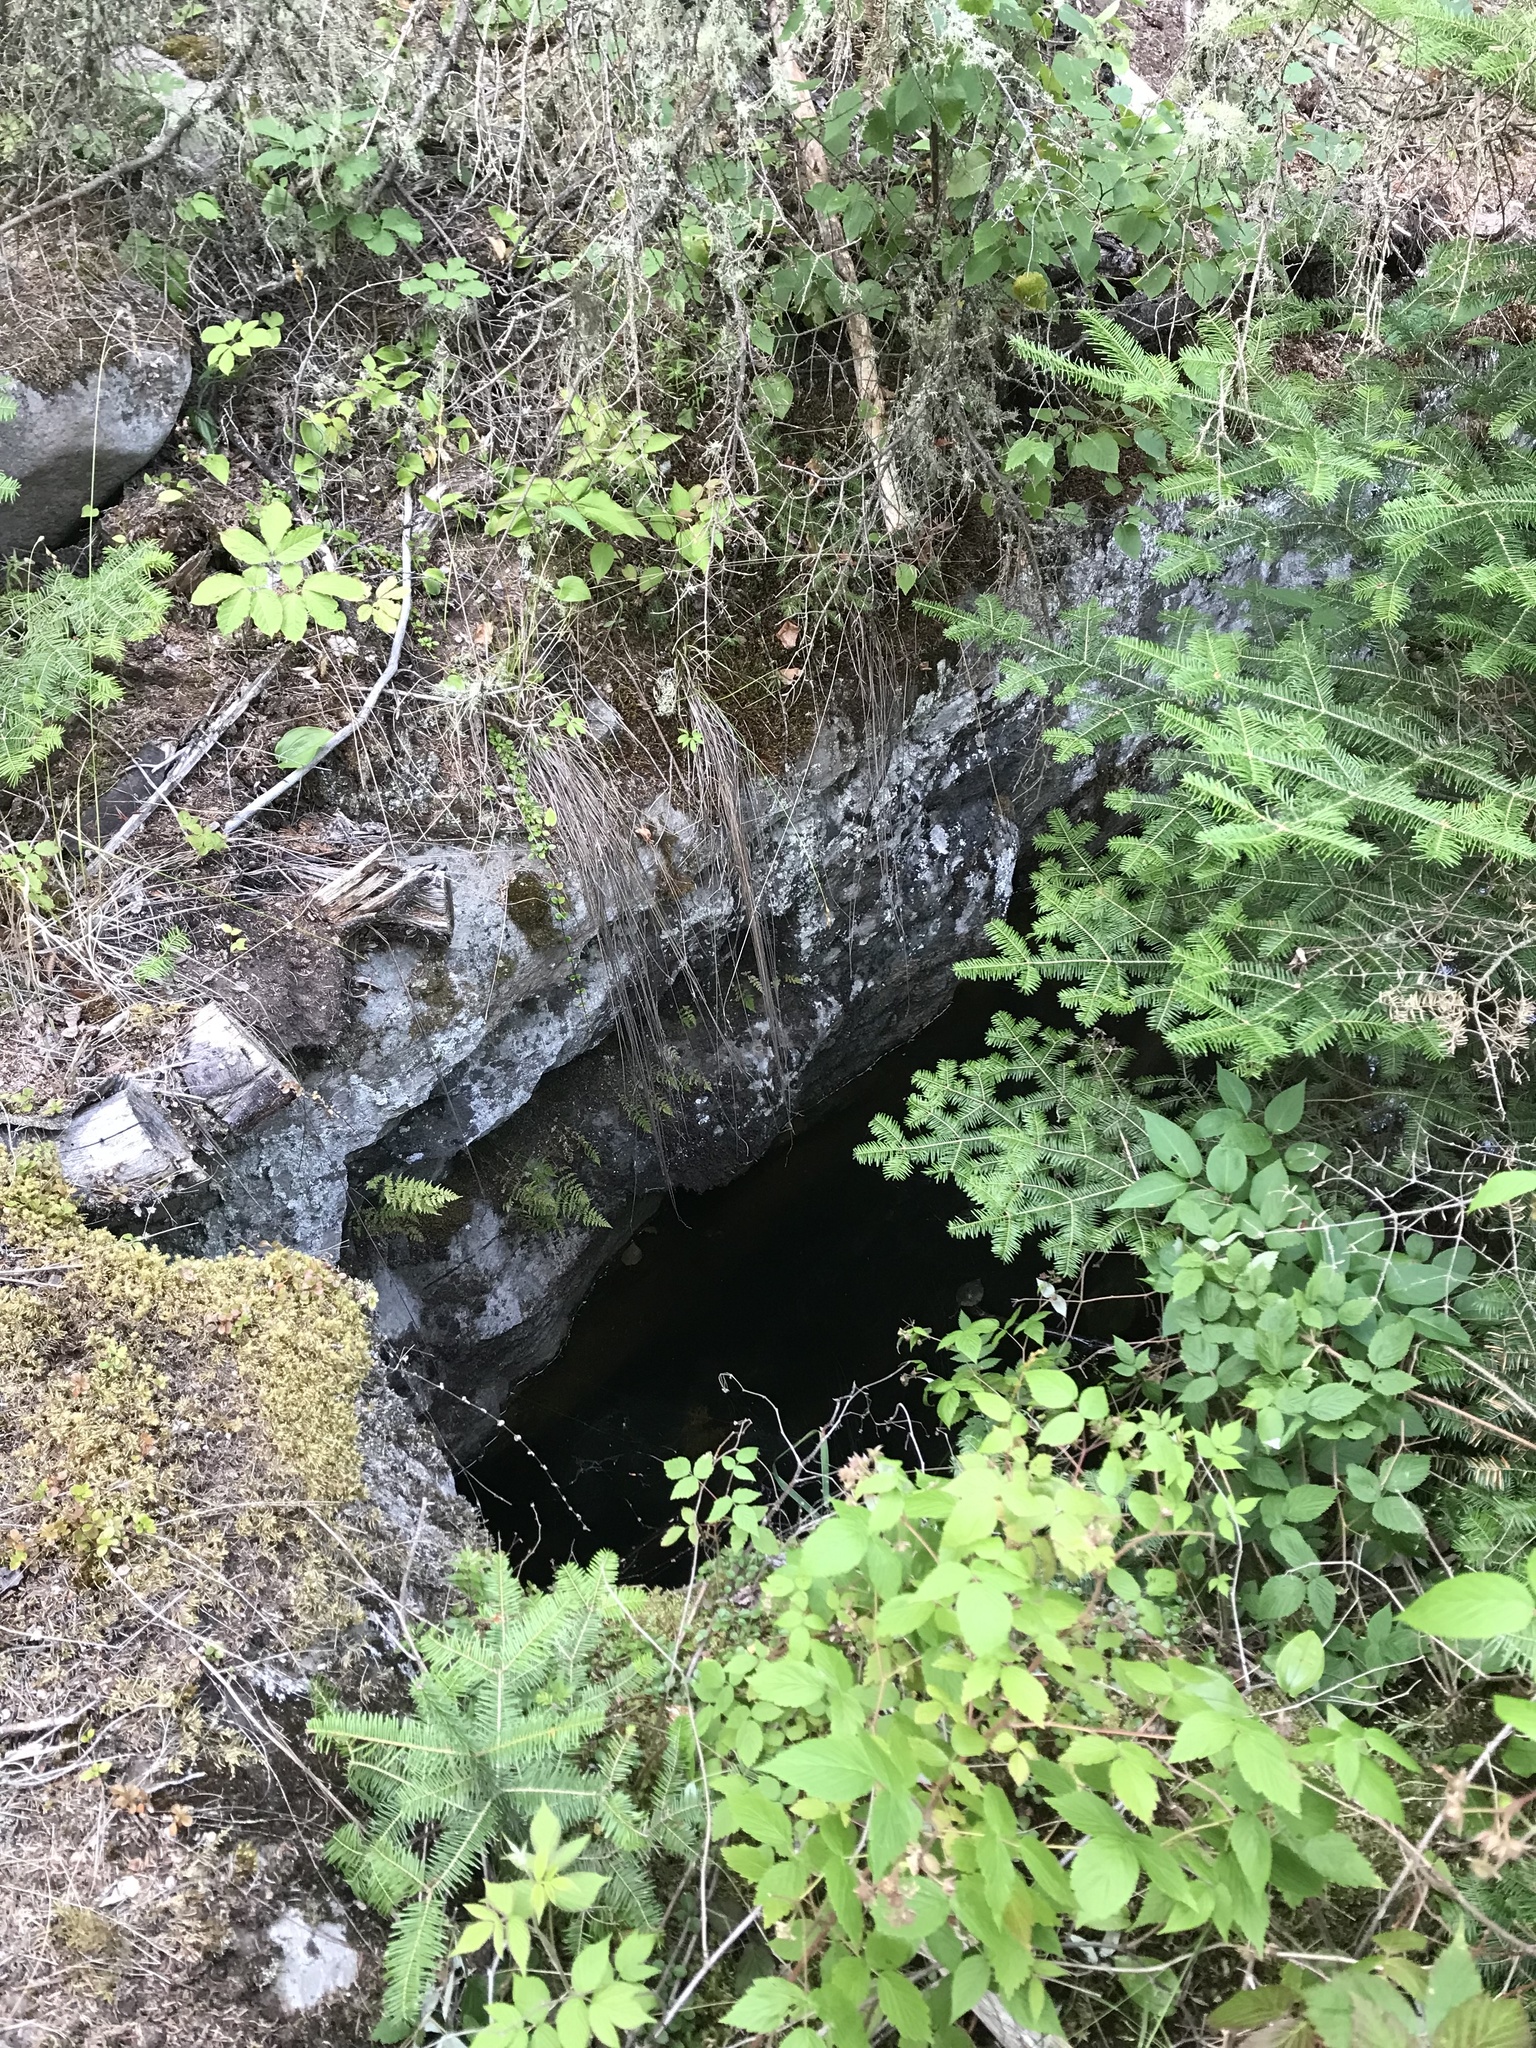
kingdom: Plantae
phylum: Tracheophyta
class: Pinopsida
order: Pinales
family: Pinaceae
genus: Abies
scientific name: Abies balsamea
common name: Balsam fir
